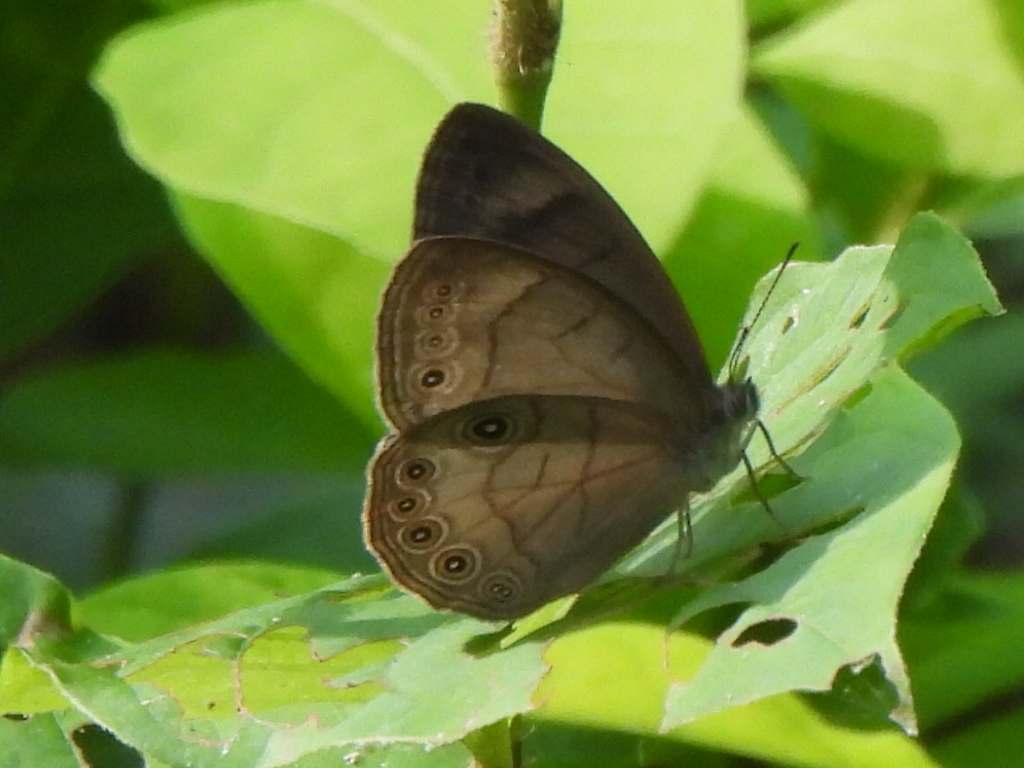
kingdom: Animalia
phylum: Arthropoda
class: Insecta
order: Lepidoptera
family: Nymphalidae
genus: Lethe
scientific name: Lethe eurydice
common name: Eyed brown
